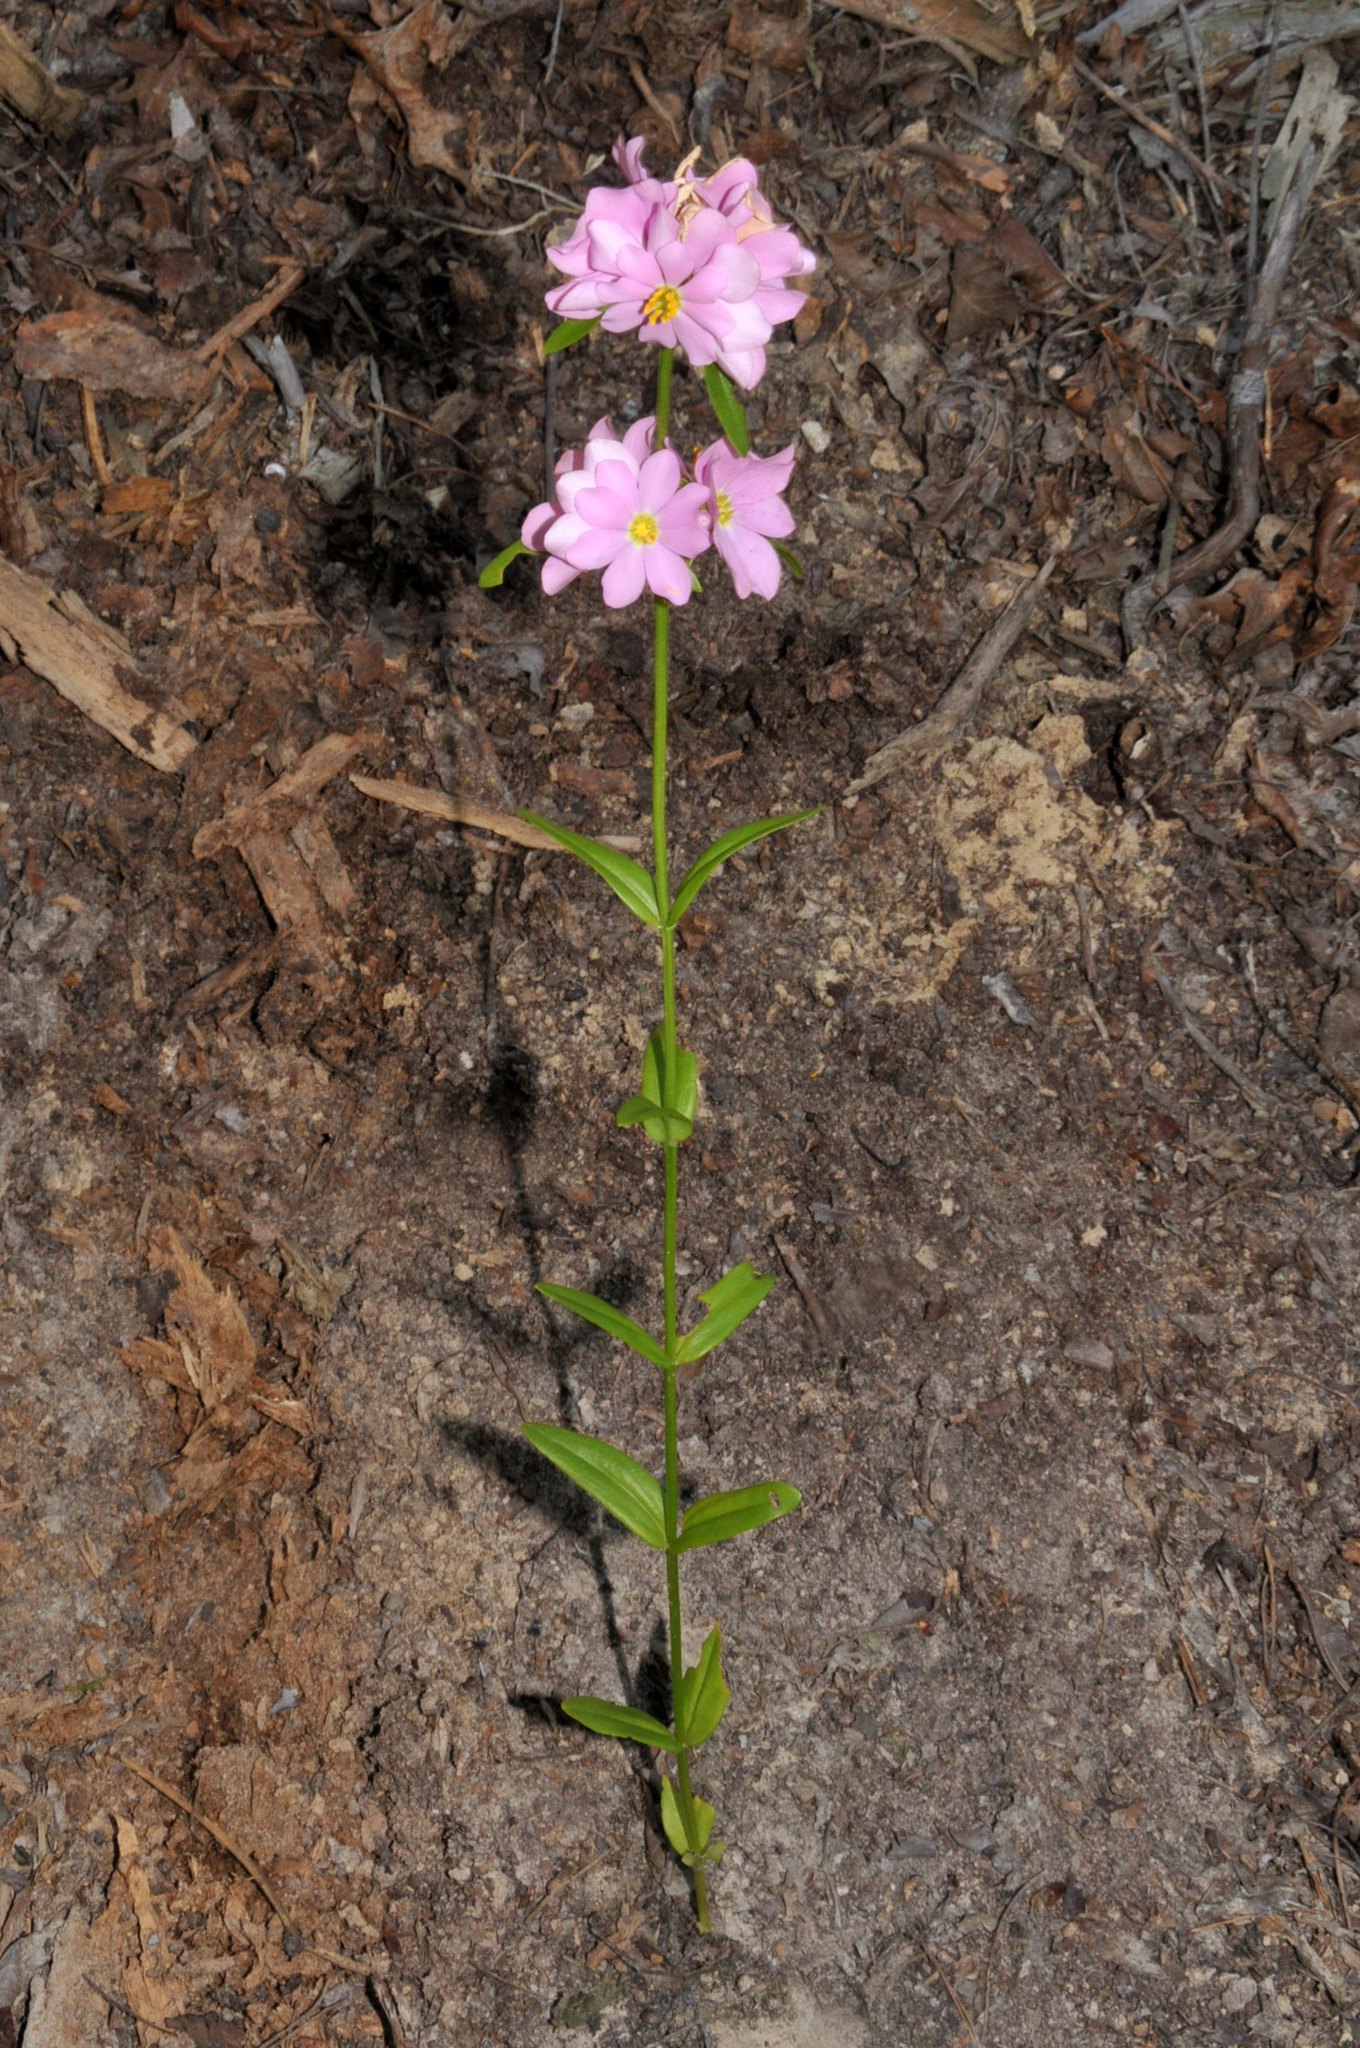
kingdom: Plantae
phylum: Tracheophyta
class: Magnoliopsida
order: Gentianales
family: Gentianaceae
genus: Sabatia
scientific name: Sabatia capitata
